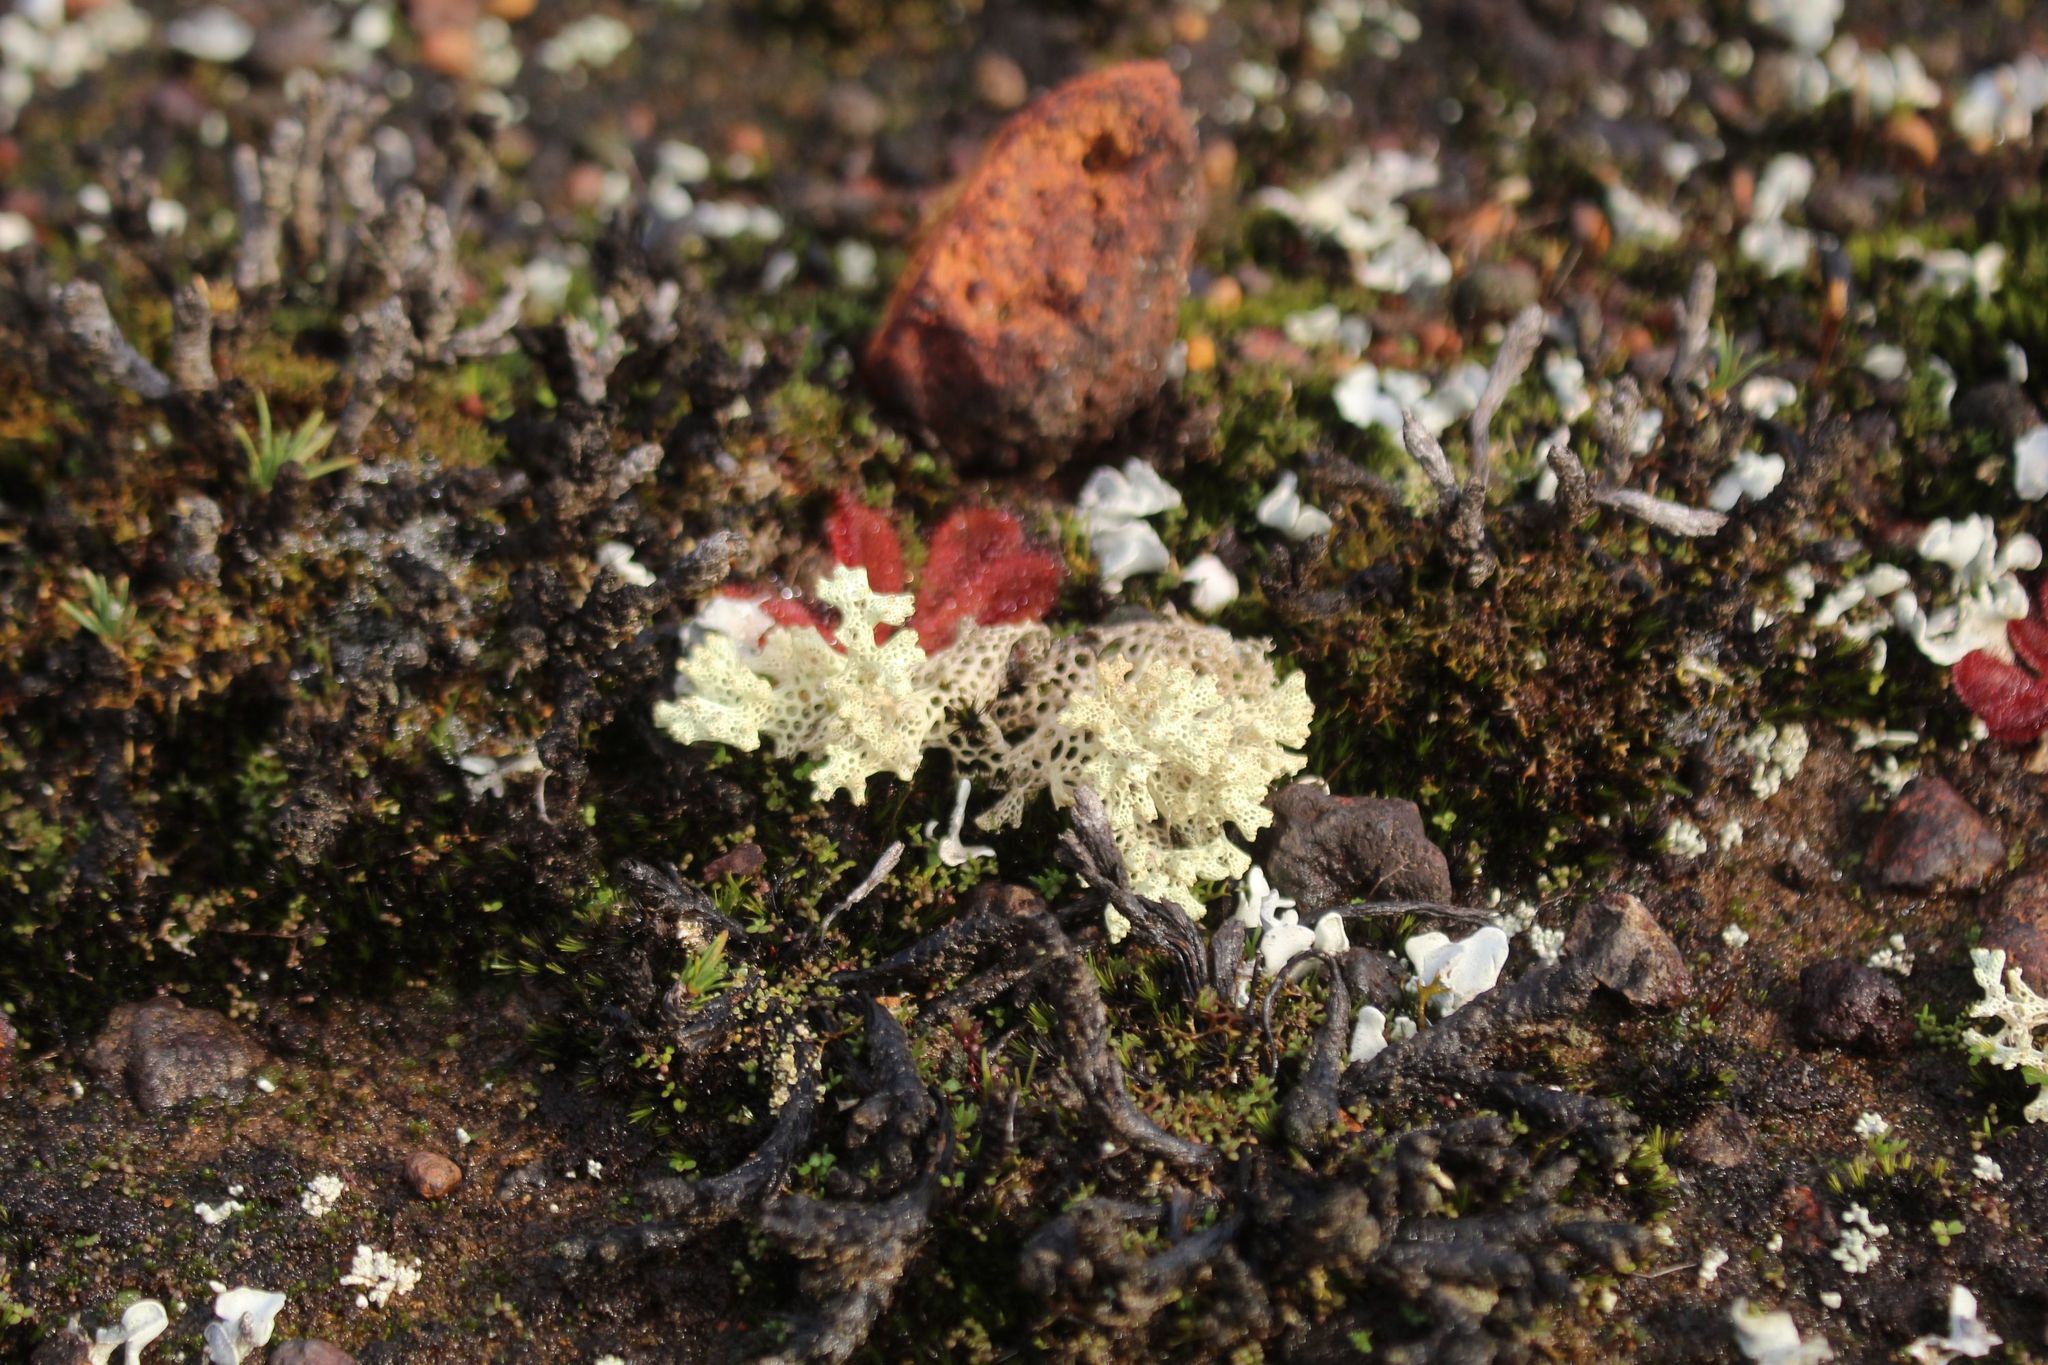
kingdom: Fungi
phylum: Ascomycota
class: Lecanoromycetes
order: Lecanorales
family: Cladoniaceae
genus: Pulchrocladia
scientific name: Pulchrocladia ferdinandii
